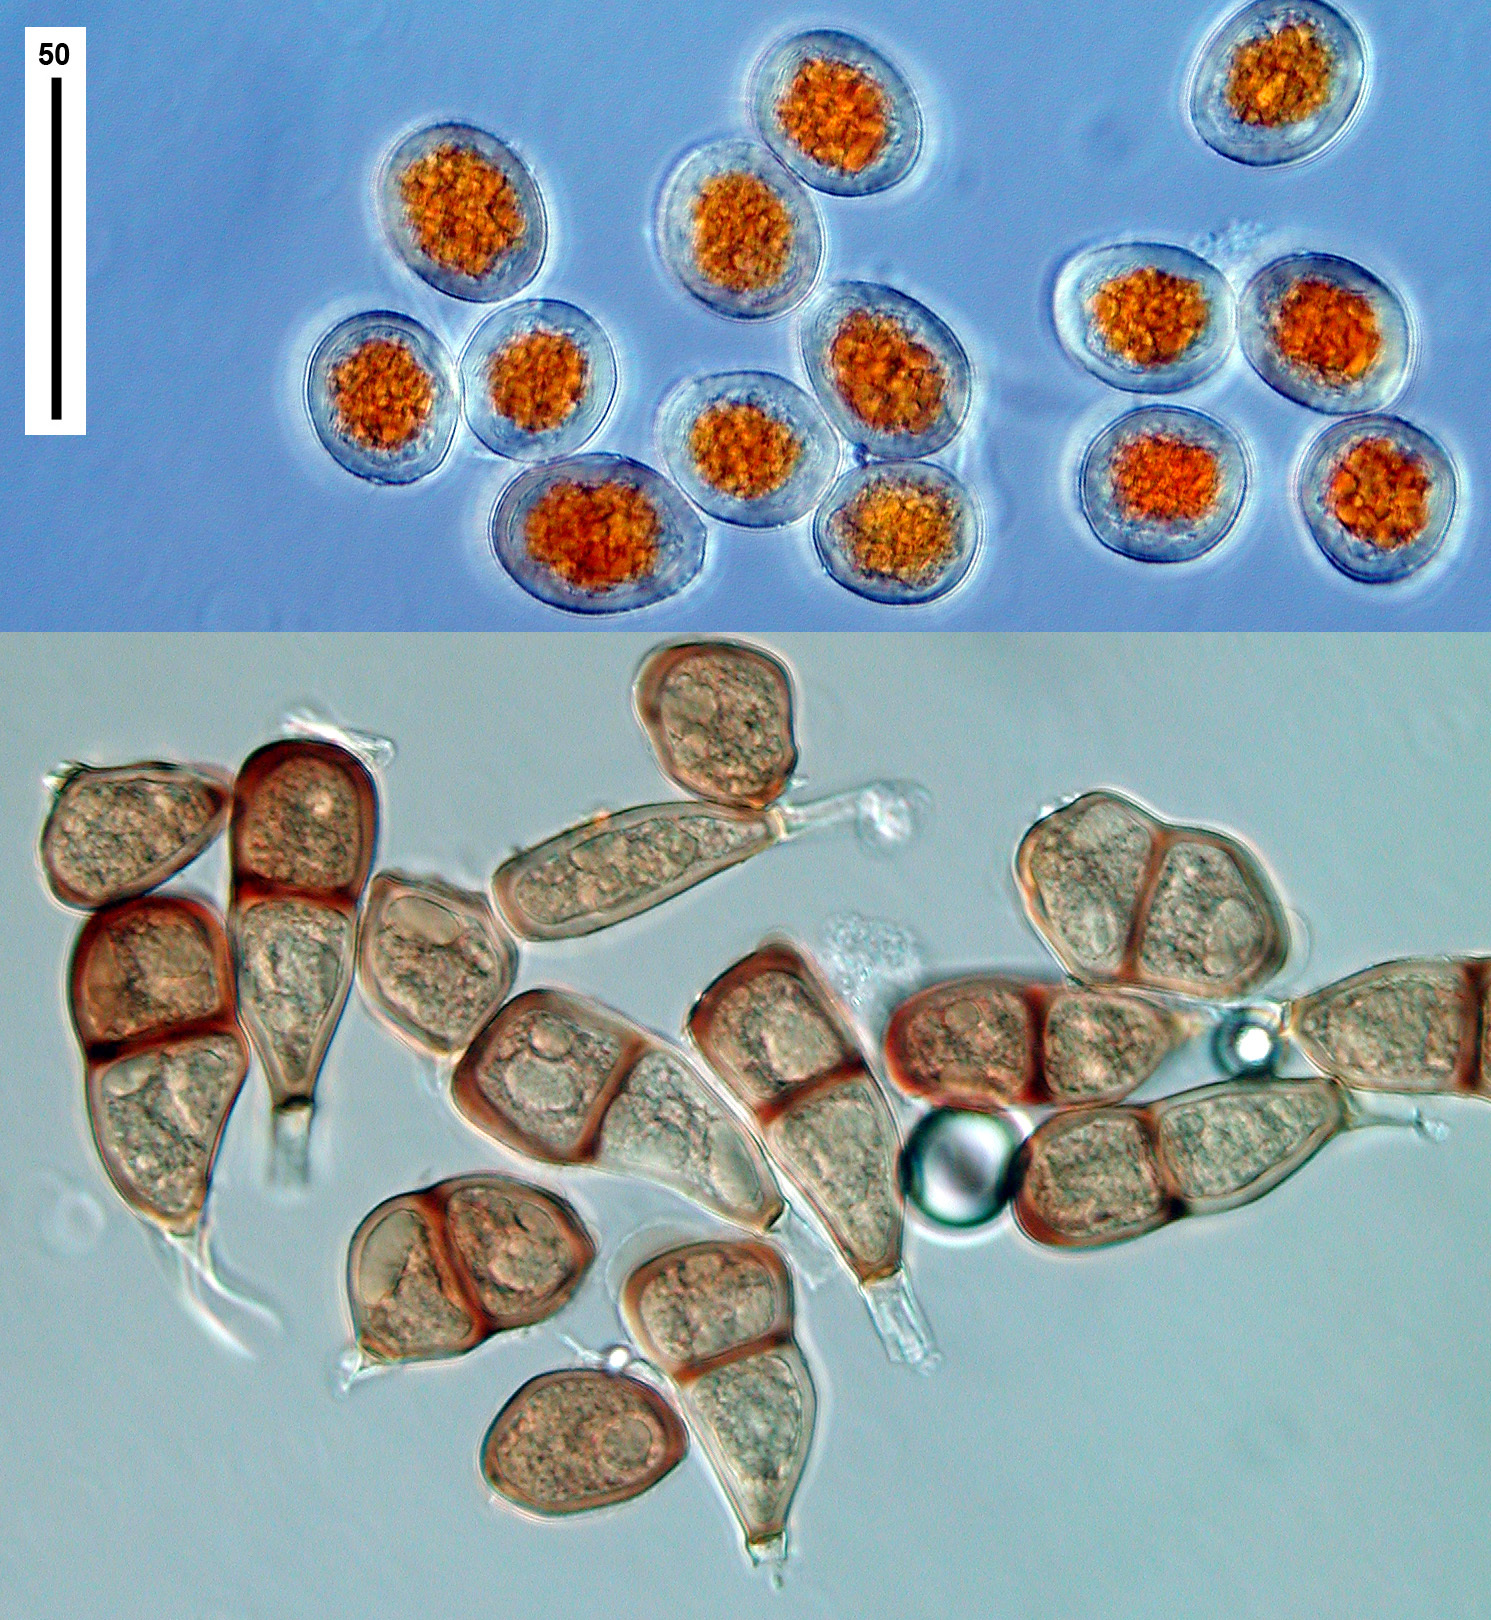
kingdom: Fungi
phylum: Basidiomycota
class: Pucciniomycetes
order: Pucciniales
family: Pucciniaceae
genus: Puccinia
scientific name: Puccinia allii
